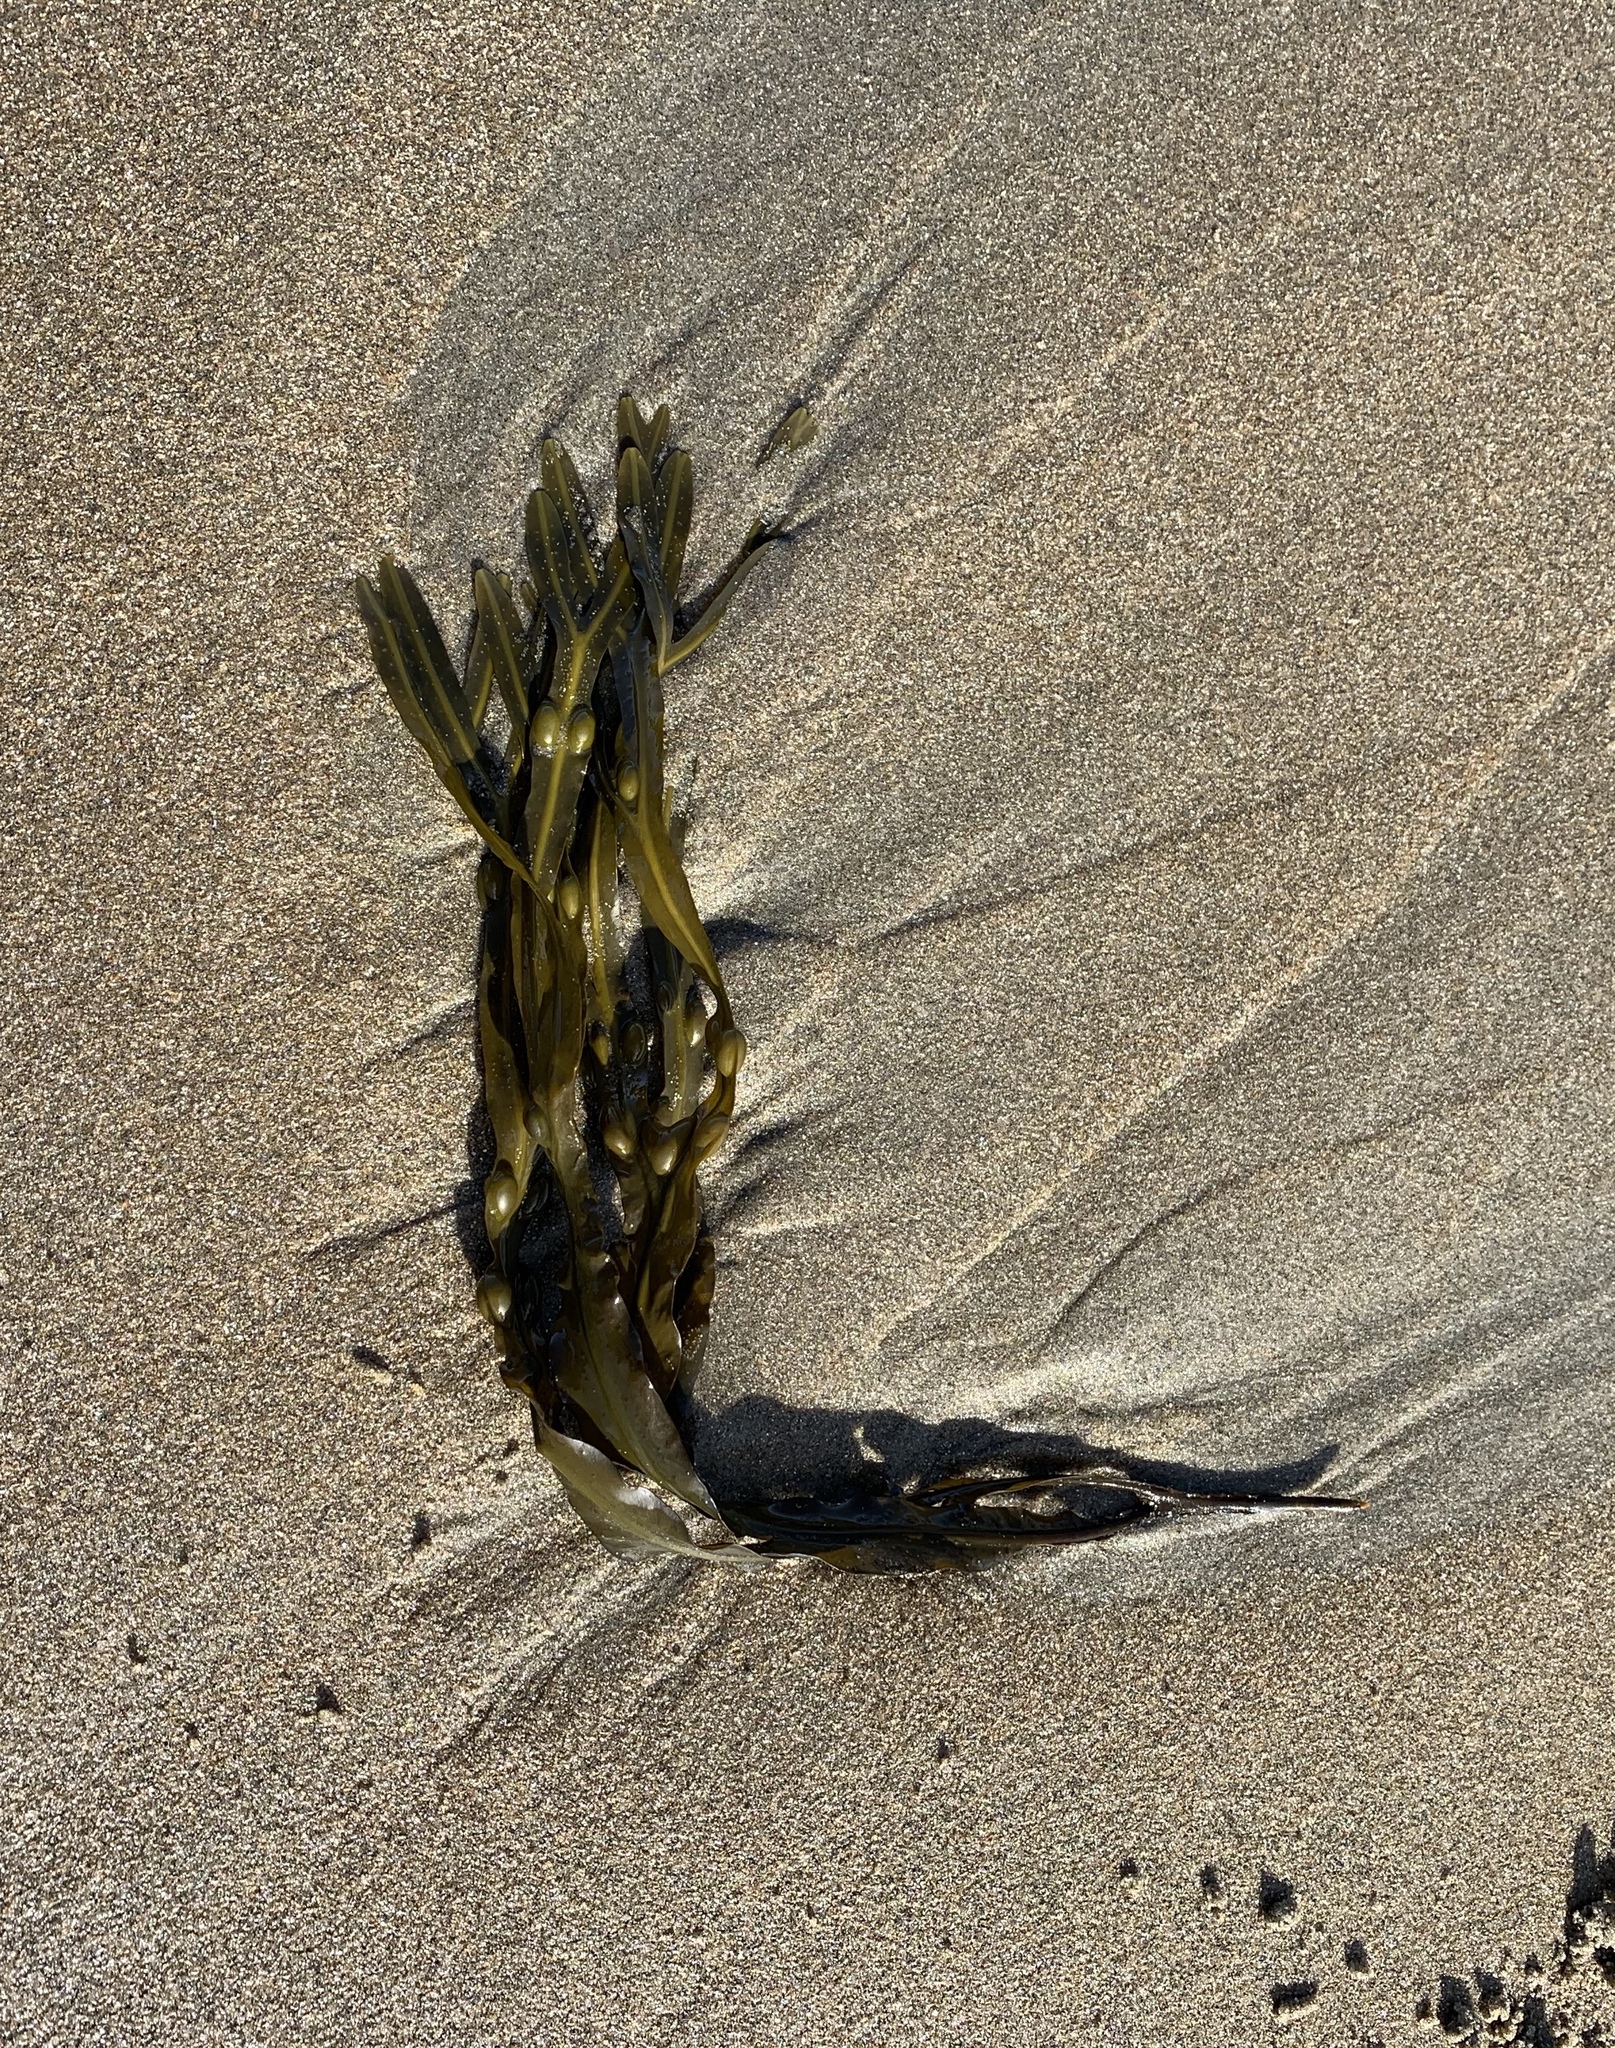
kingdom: Chromista
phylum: Ochrophyta
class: Phaeophyceae
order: Fucales
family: Fucaceae
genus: Fucus
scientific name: Fucus vesiculosus
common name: Bladder wrack
